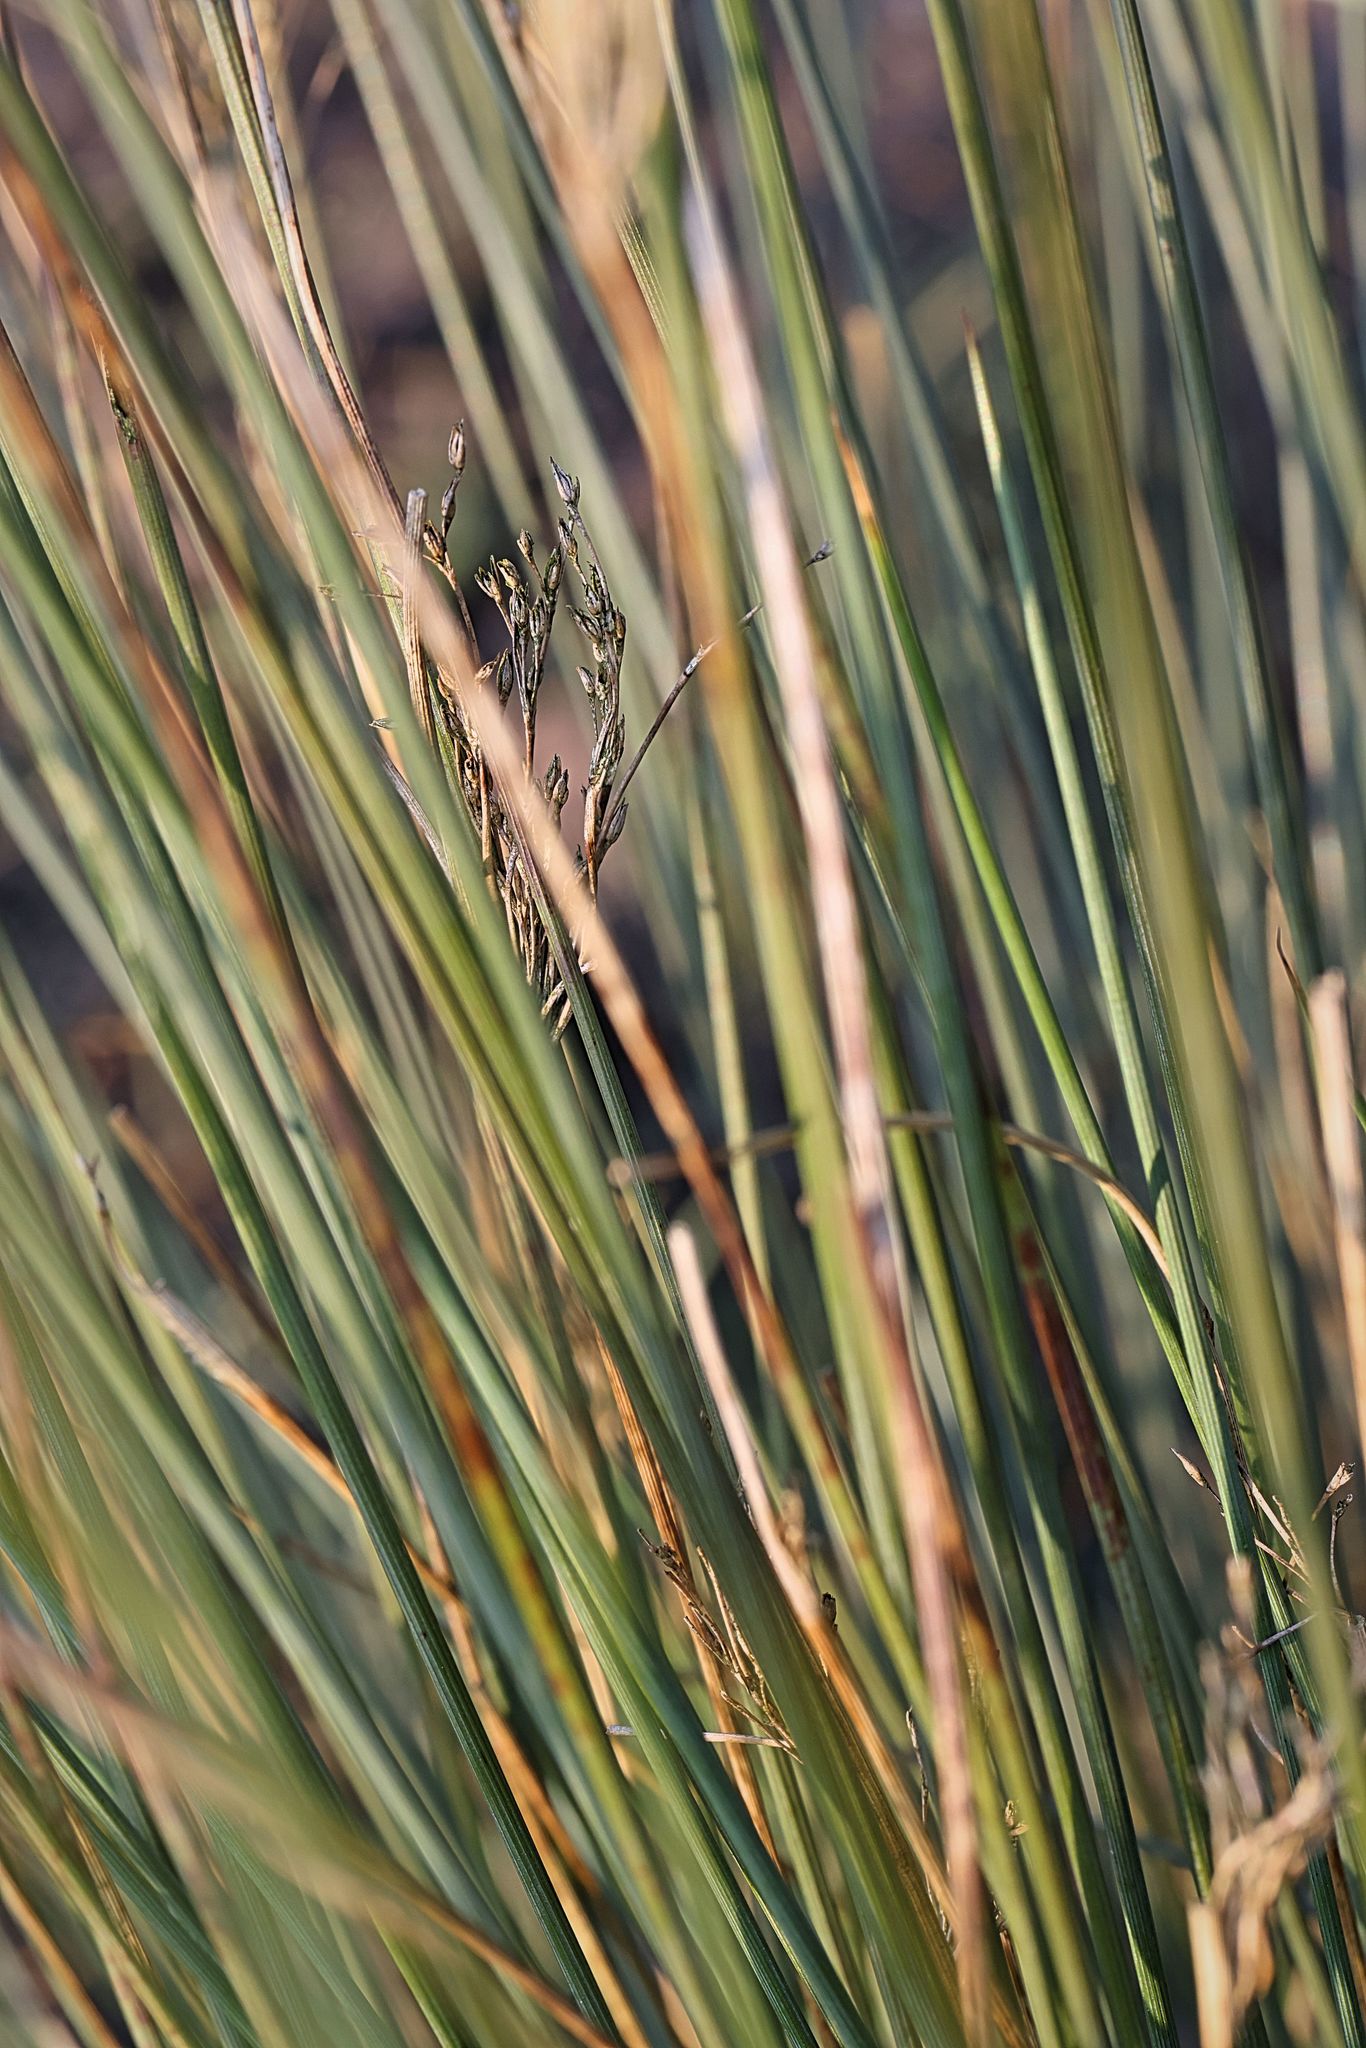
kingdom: Plantae
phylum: Tracheophyta
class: Liliopsida
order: Poales
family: Juncaceae
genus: Juncus
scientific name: Juncus inflexus
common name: Hard rush
